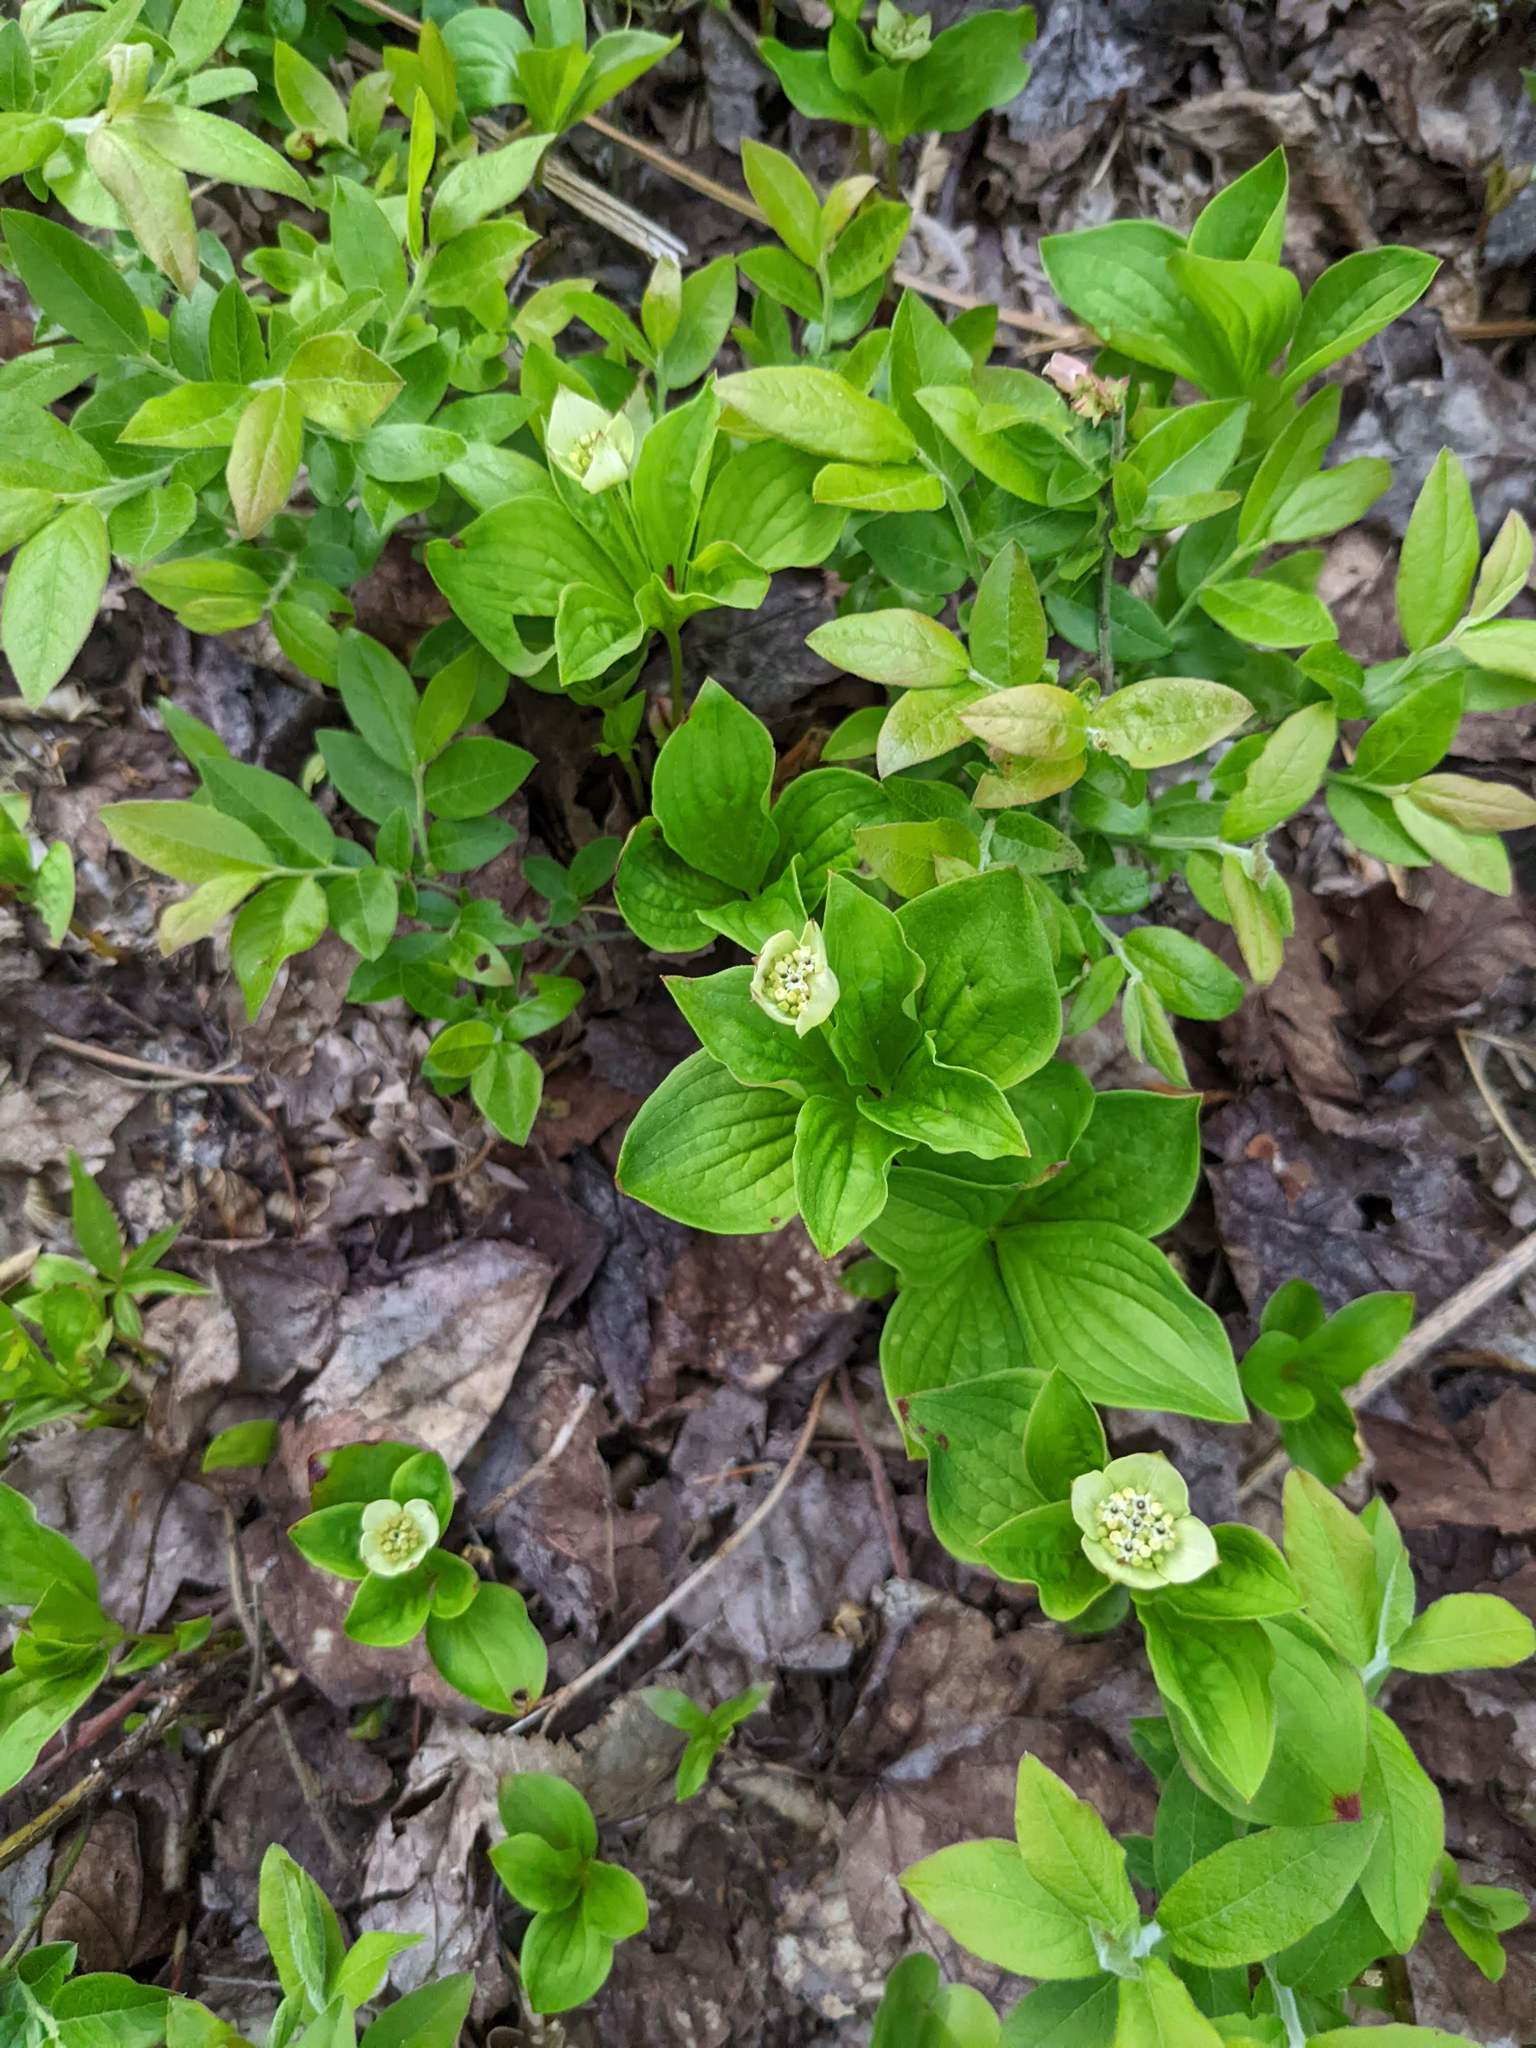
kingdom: Plantae
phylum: Tracheophyta
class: Magnoliopsida
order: Cornales
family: Cornaceae
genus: Cornus
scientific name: Cornus canadensis
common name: Creeping dogwood
